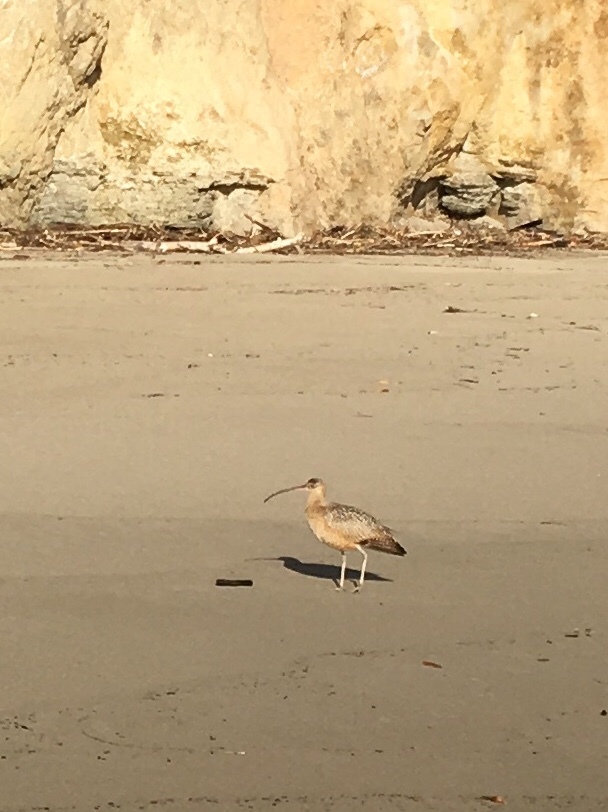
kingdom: Animalia
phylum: Chordata
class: Aves
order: Charadriiformes
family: Scolopacidae
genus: Numenius
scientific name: Numenius americanus
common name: Long-billed curlew
